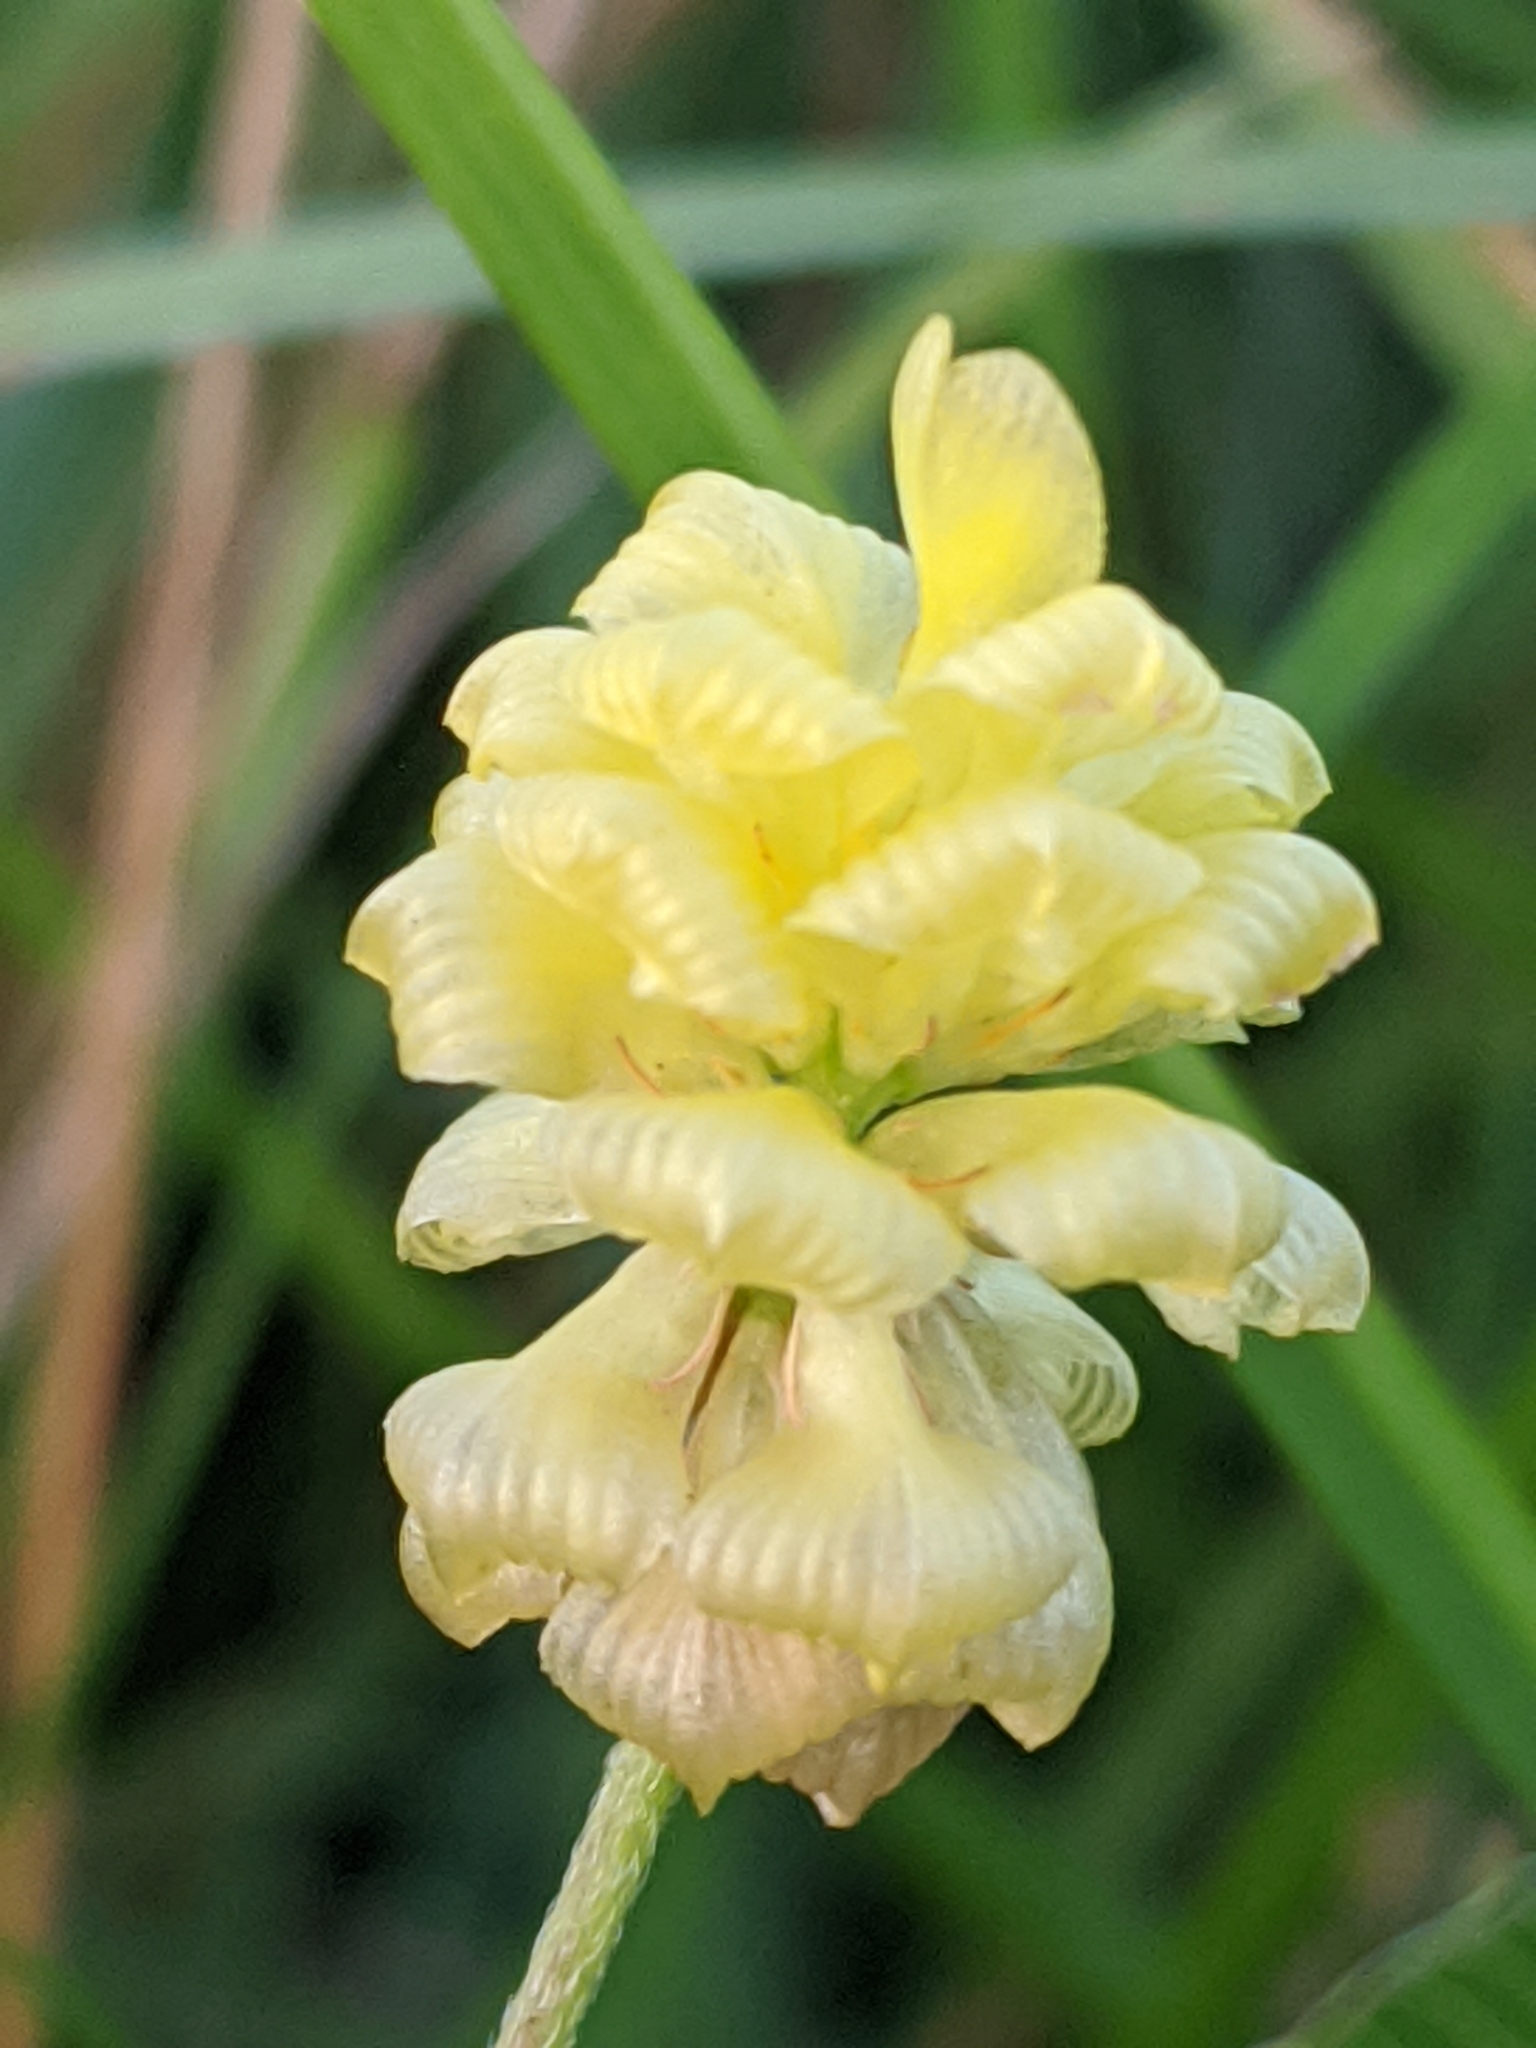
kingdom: Plantae
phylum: Tracheophyta
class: Magnoliopsida
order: Fabales
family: Fabaceae
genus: Trifolium
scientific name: Trifolium campestre
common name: Field clover
